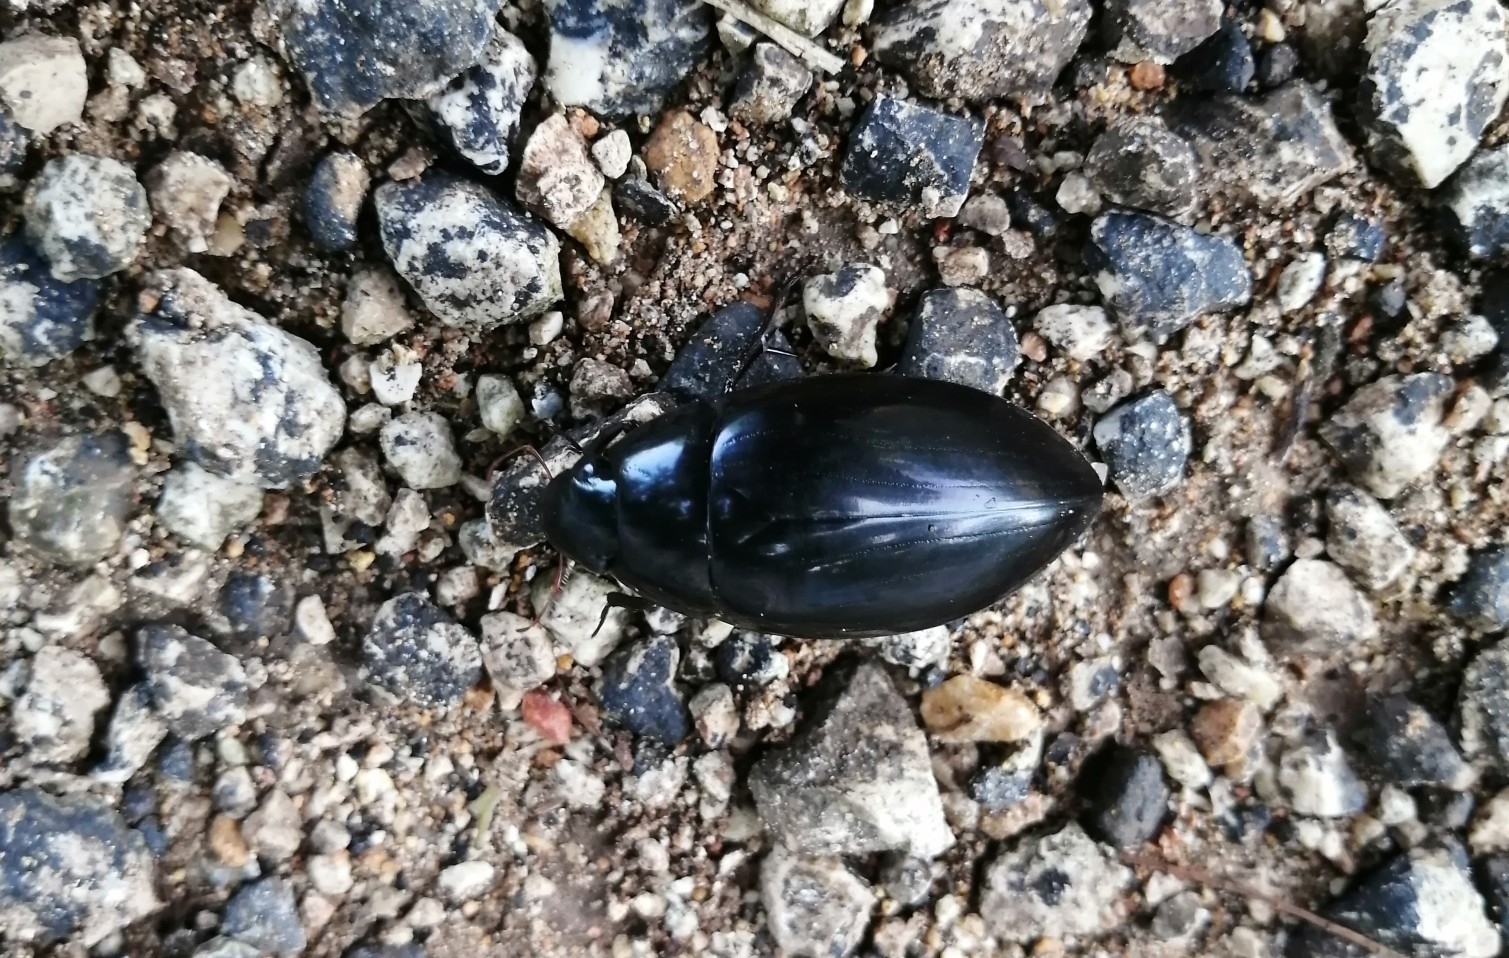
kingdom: Animalia
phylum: Arthropoda
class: Insecta
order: Coleoptera
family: Hydrophilidae
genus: Hydrophilus
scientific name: Hydrophilus ensifer
